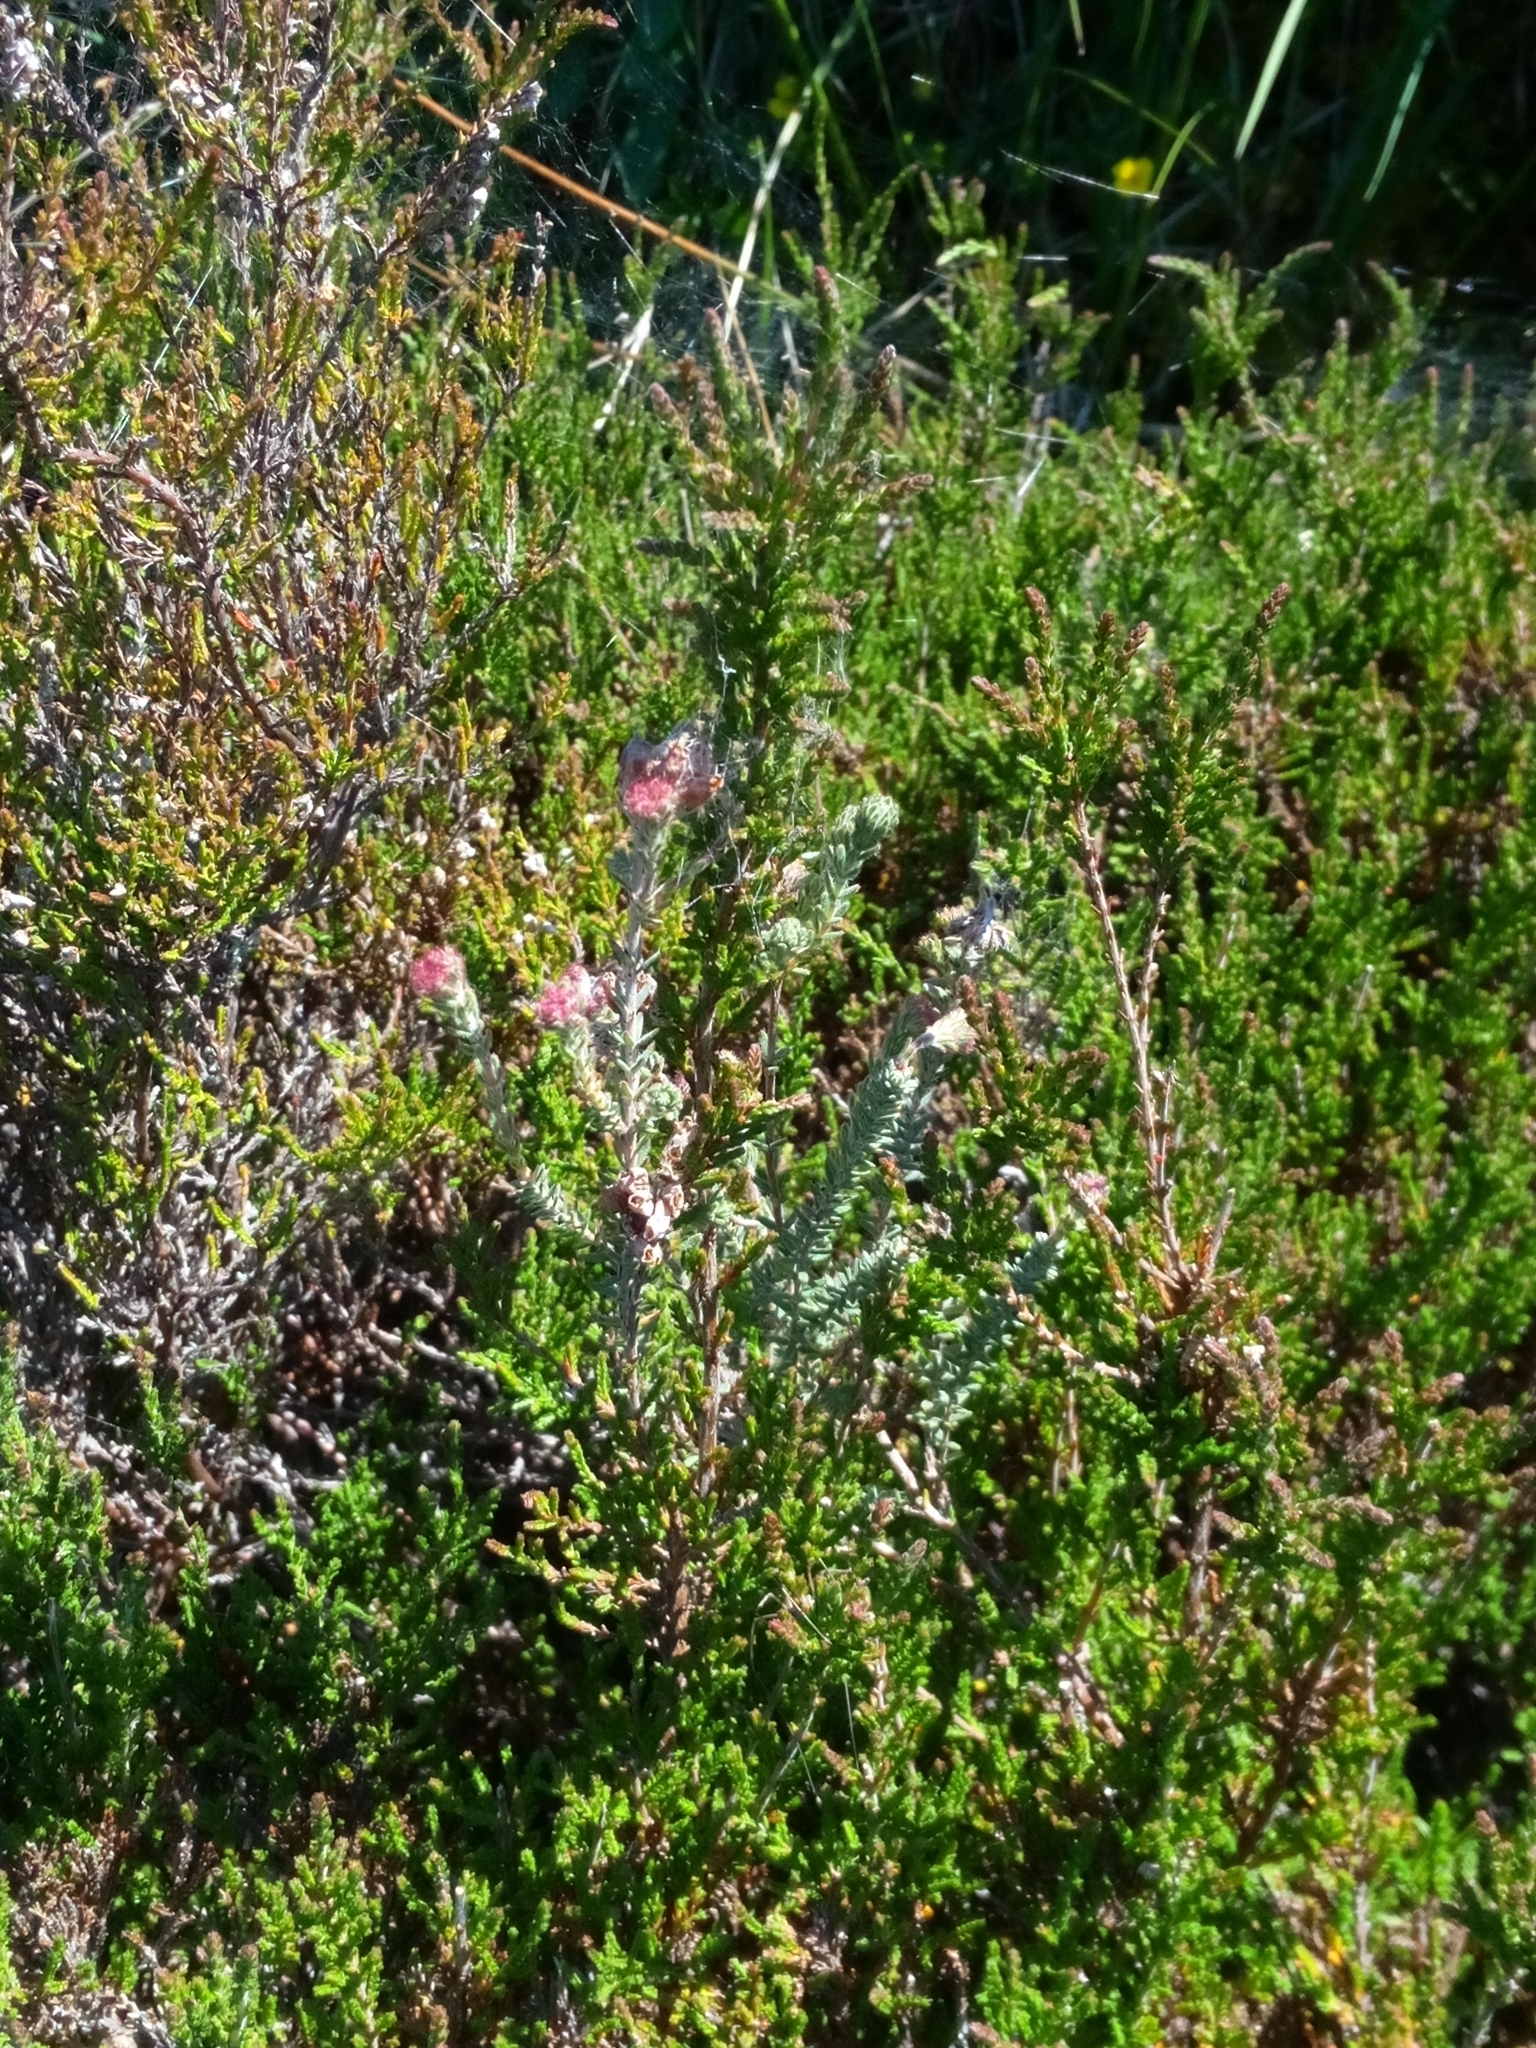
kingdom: Plantae
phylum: Tracheophyta
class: Magnoliopsida
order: Ericales
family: Ericaceae
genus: Erica
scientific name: Erica tetralix
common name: Cross-leaved heath
